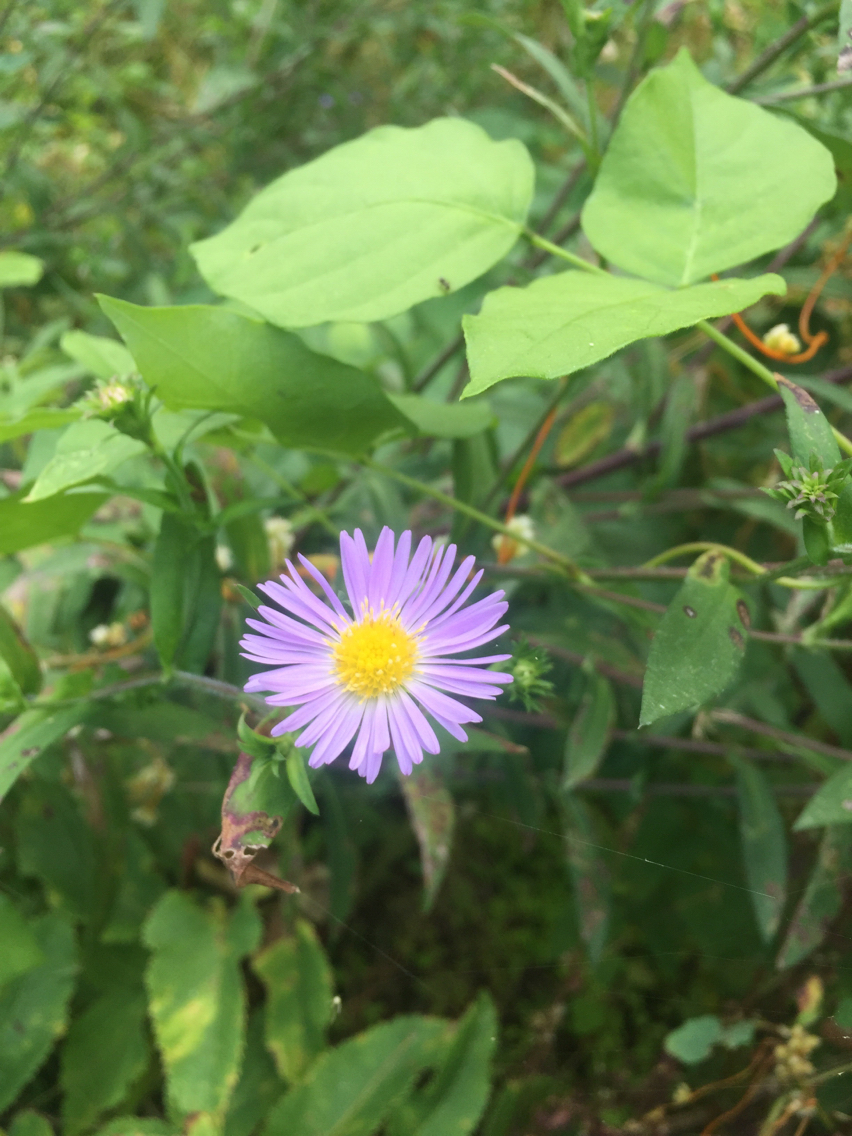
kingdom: Plantae
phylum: Tracheophyta
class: Magnoliopsida
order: Asterales
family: Asteraceae
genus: Symphyotrichum
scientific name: Symphyotrichum novae-angliae
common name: Michaelmas daisy
